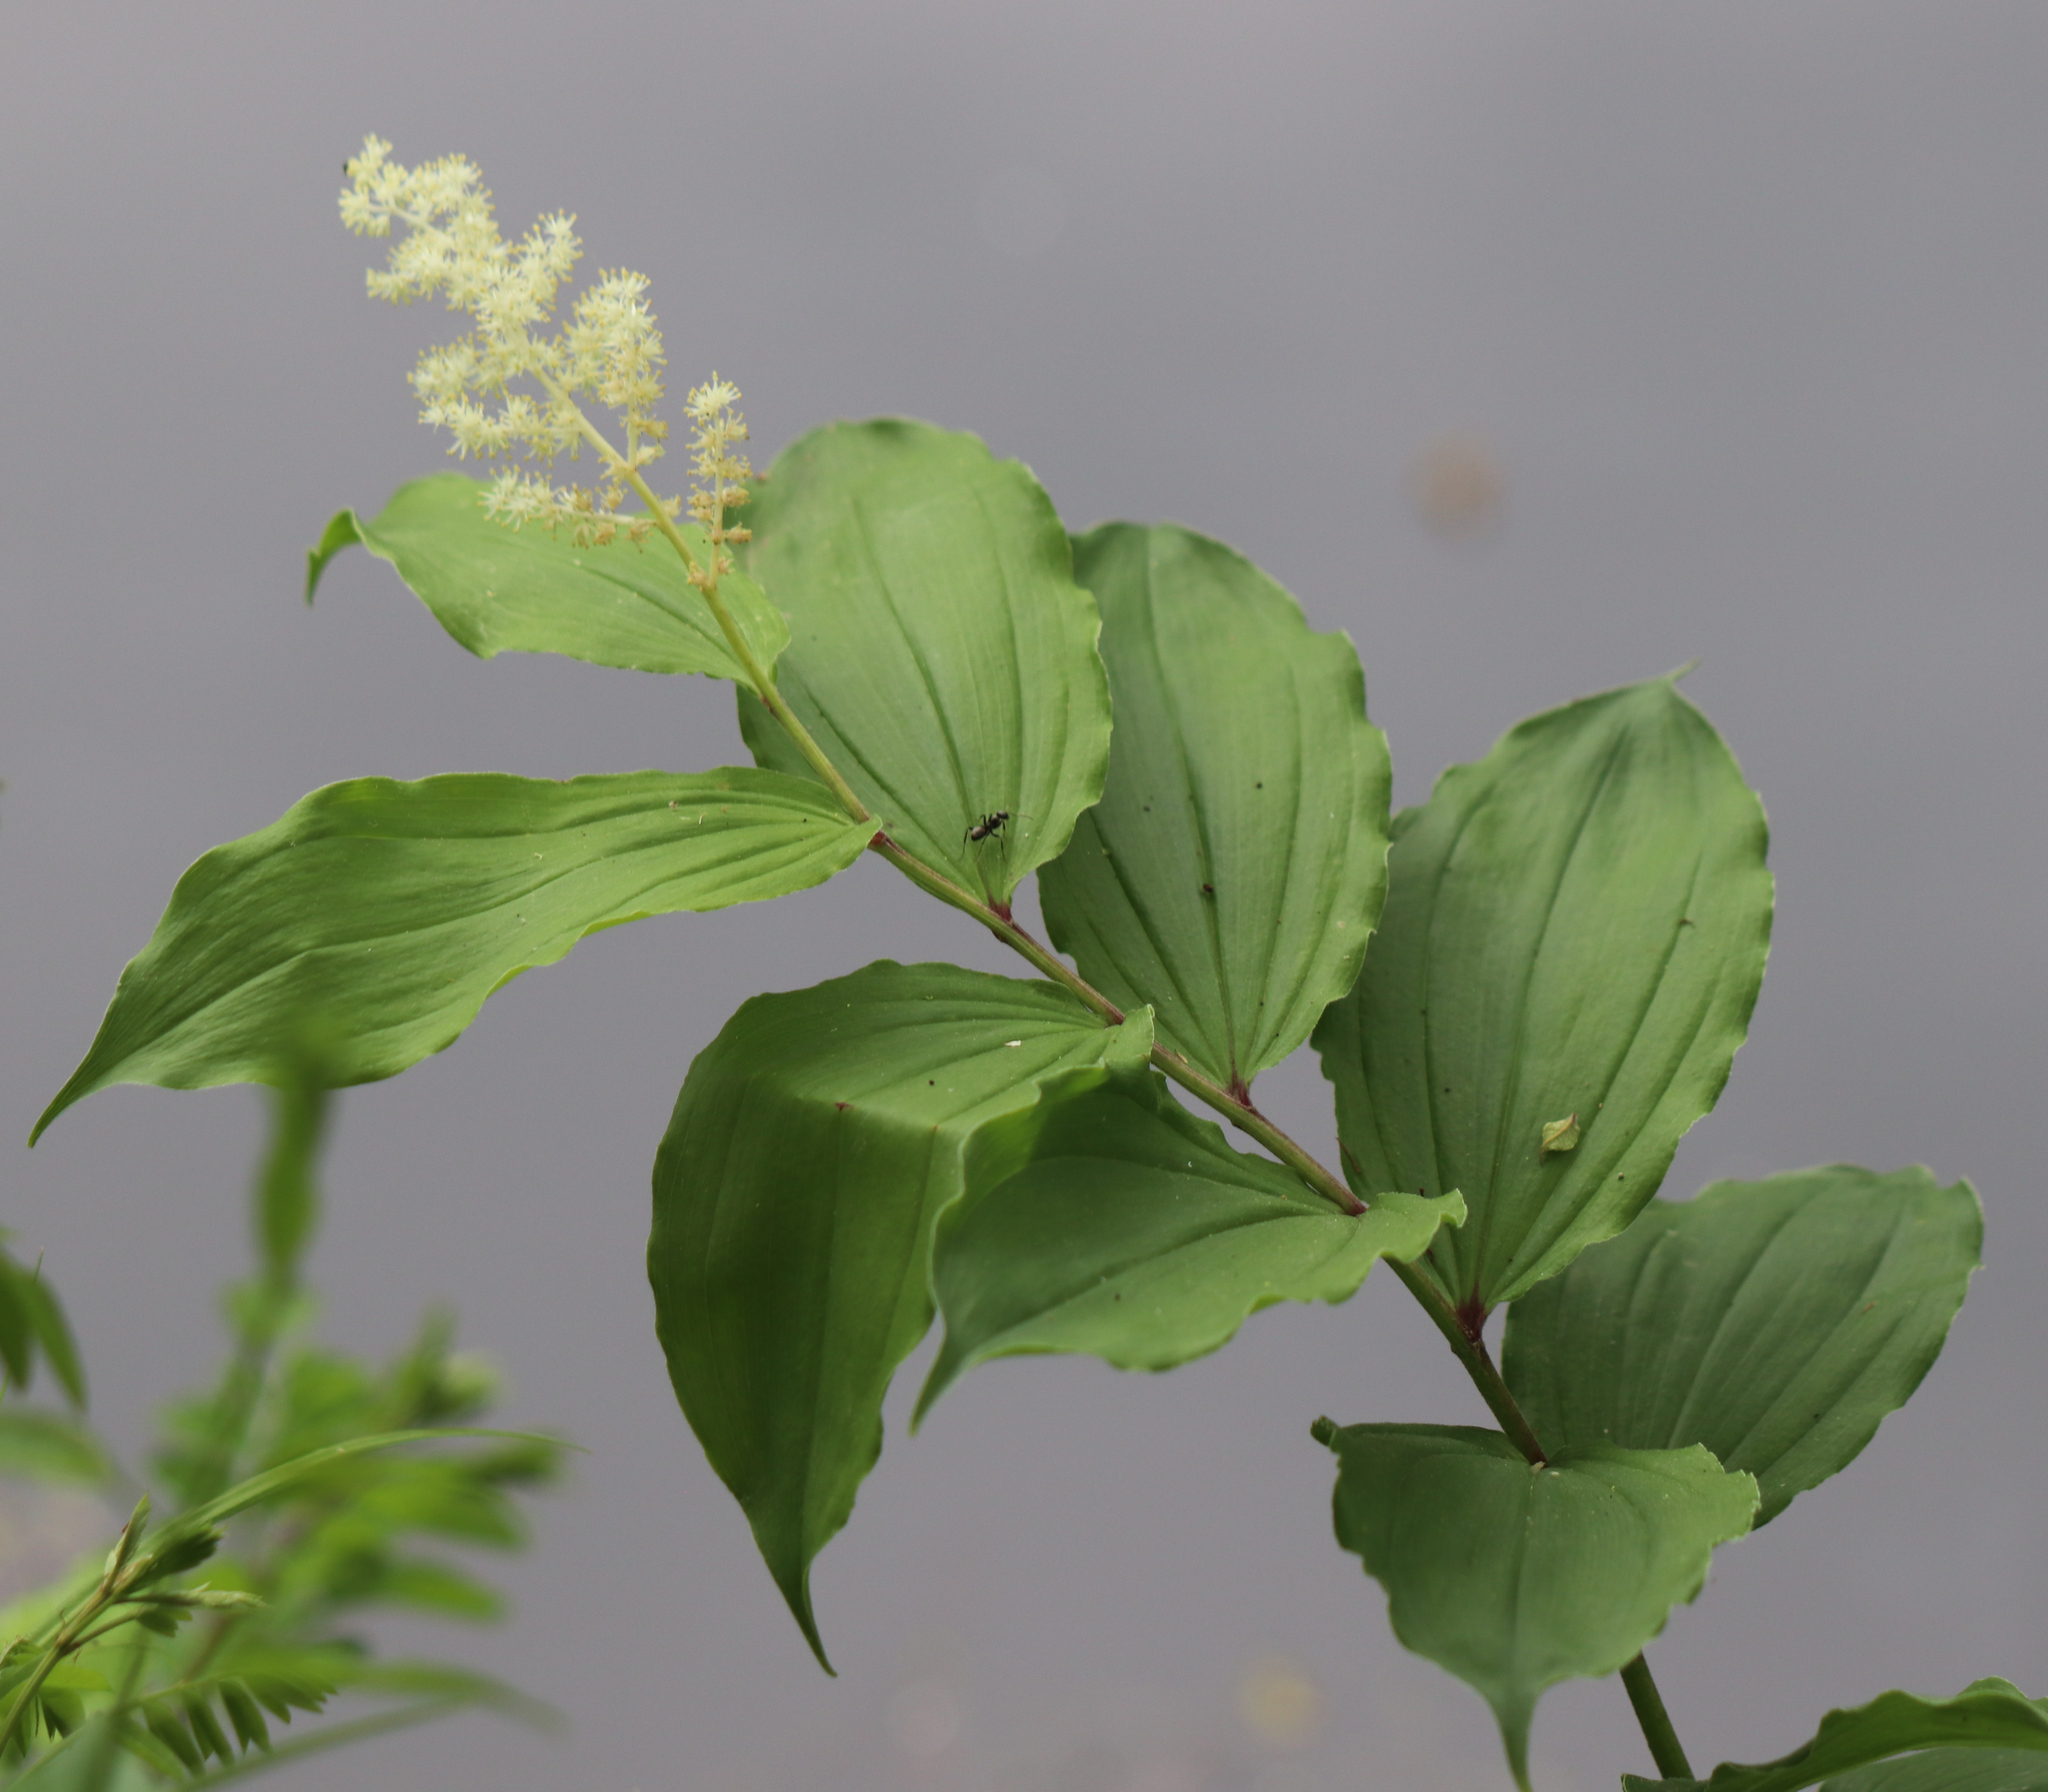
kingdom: Plantae
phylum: Tracheophyta
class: Liliopsida
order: Asparagales
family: Asparagaceae
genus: Maianthemum
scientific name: Maianthemum racemosum
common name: False spikenard
